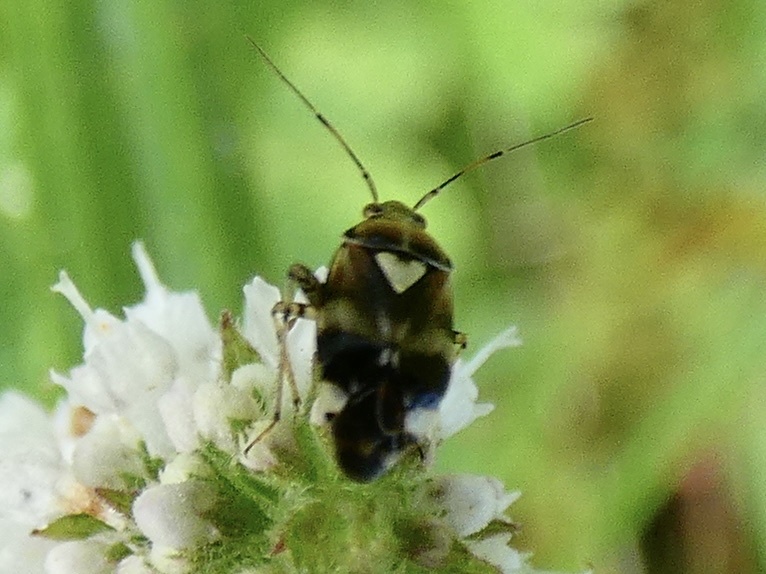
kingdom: Animalia
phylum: Arthropoda
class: Insecta
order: Hemiptera
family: Miridae
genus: Liocoris
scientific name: Liocoris tripustulatus
